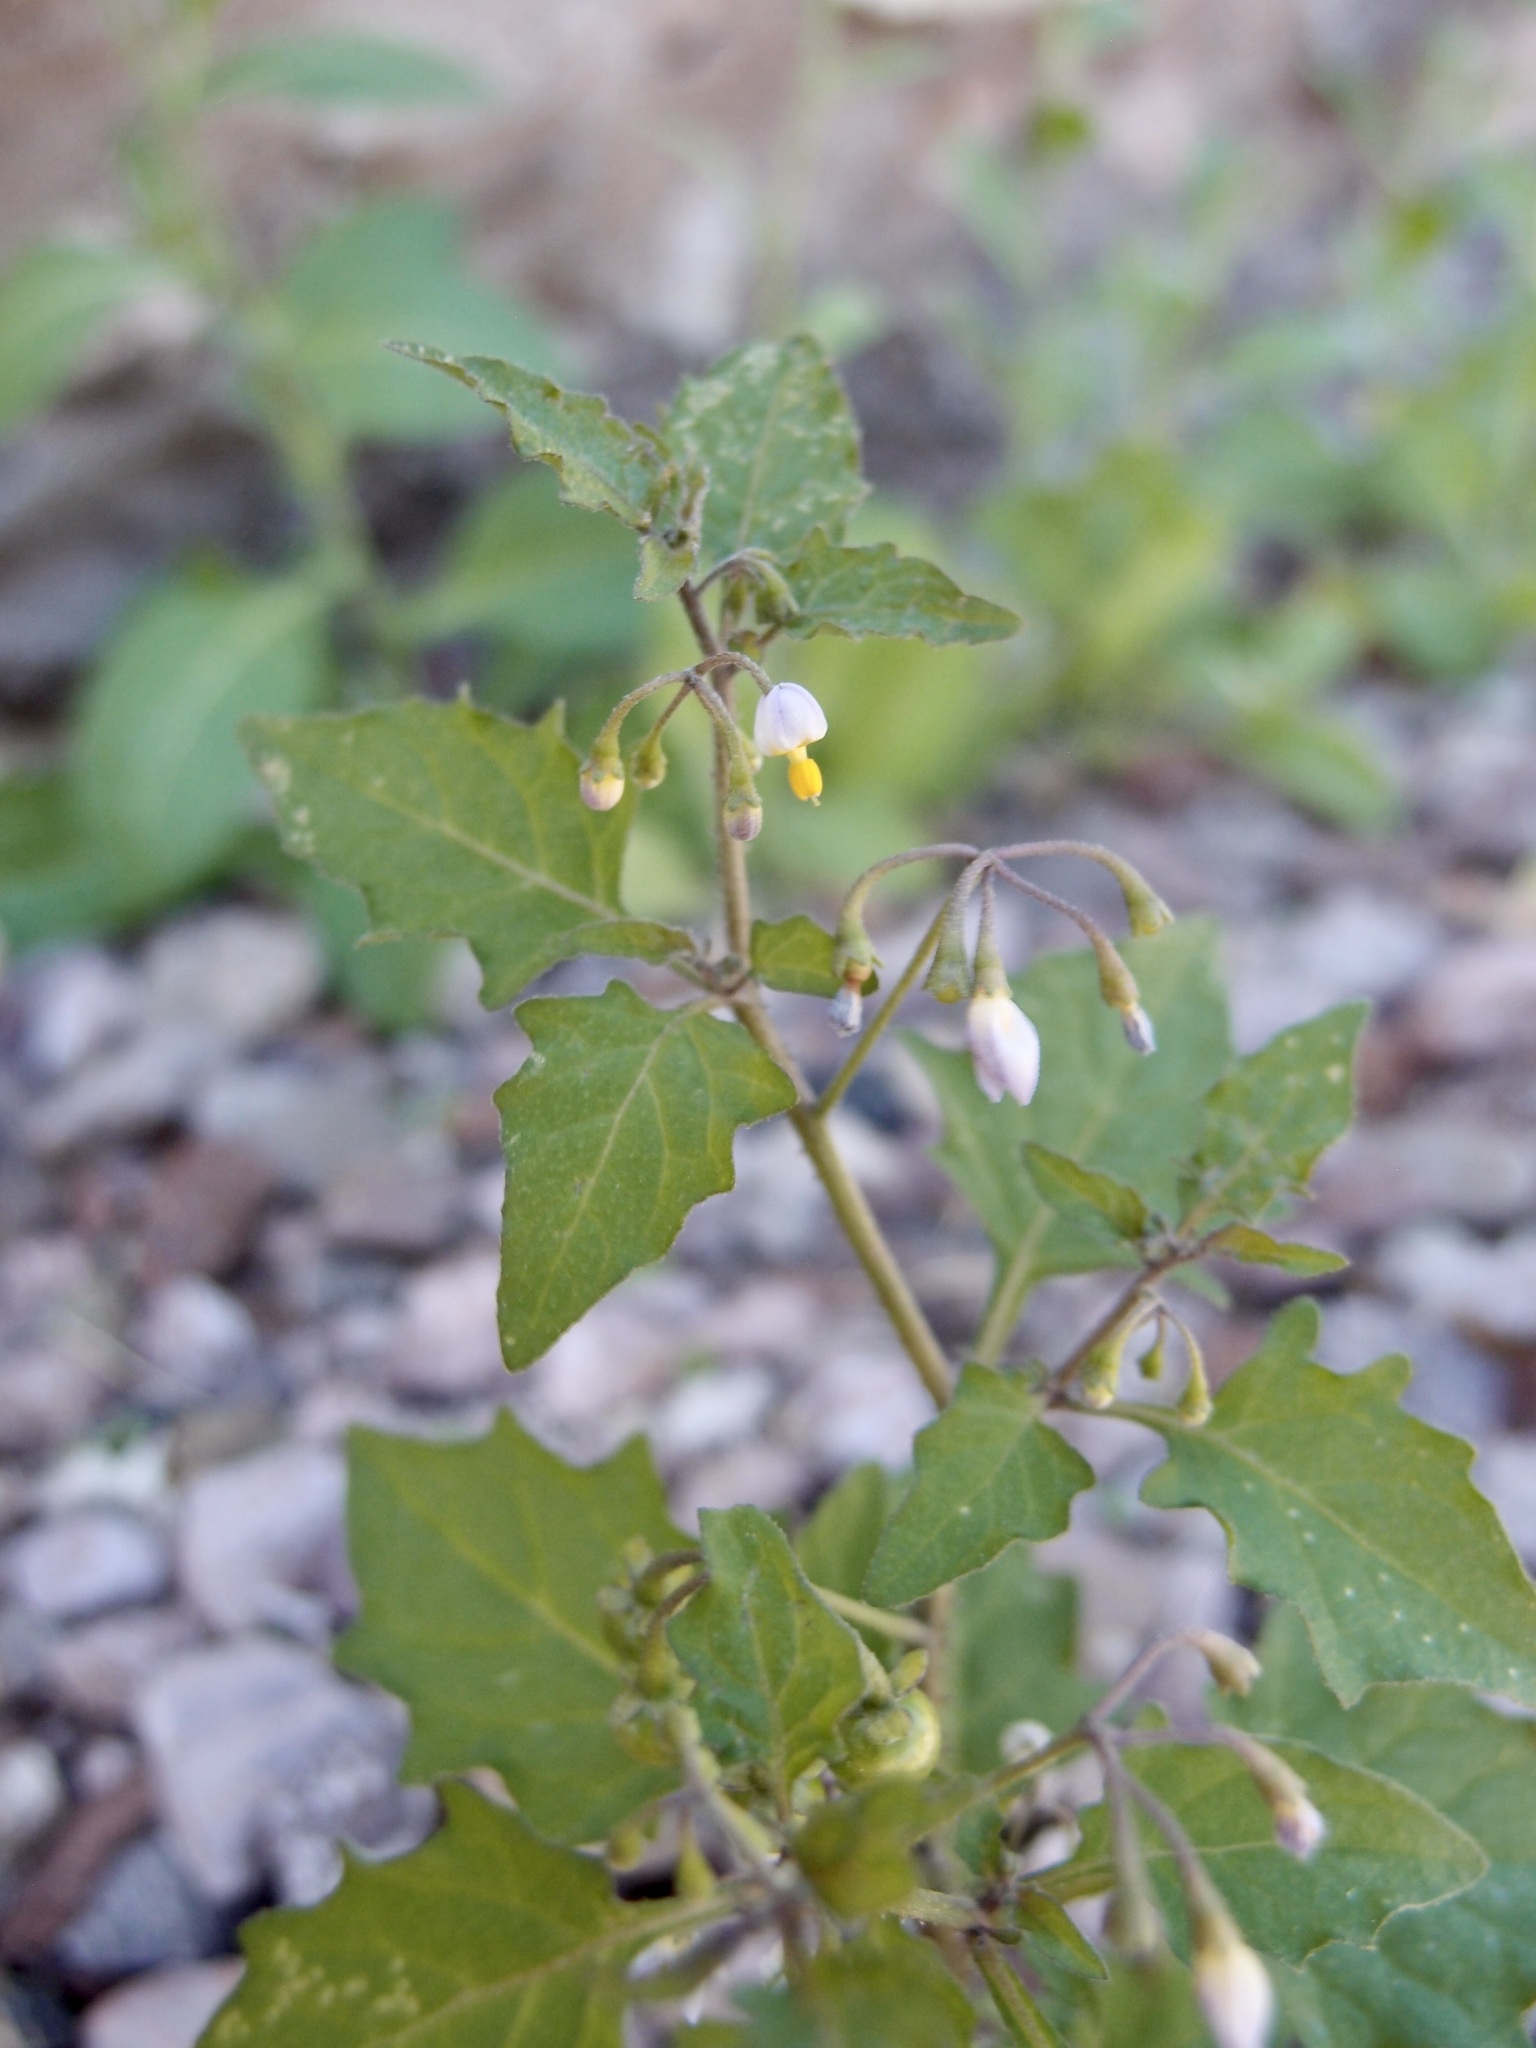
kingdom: Plantae
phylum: Tracheophyta
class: Magnoliopsida
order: Solanales
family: Solanaceae
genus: Solanum
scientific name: Solanum americanum
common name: American black nightshade
